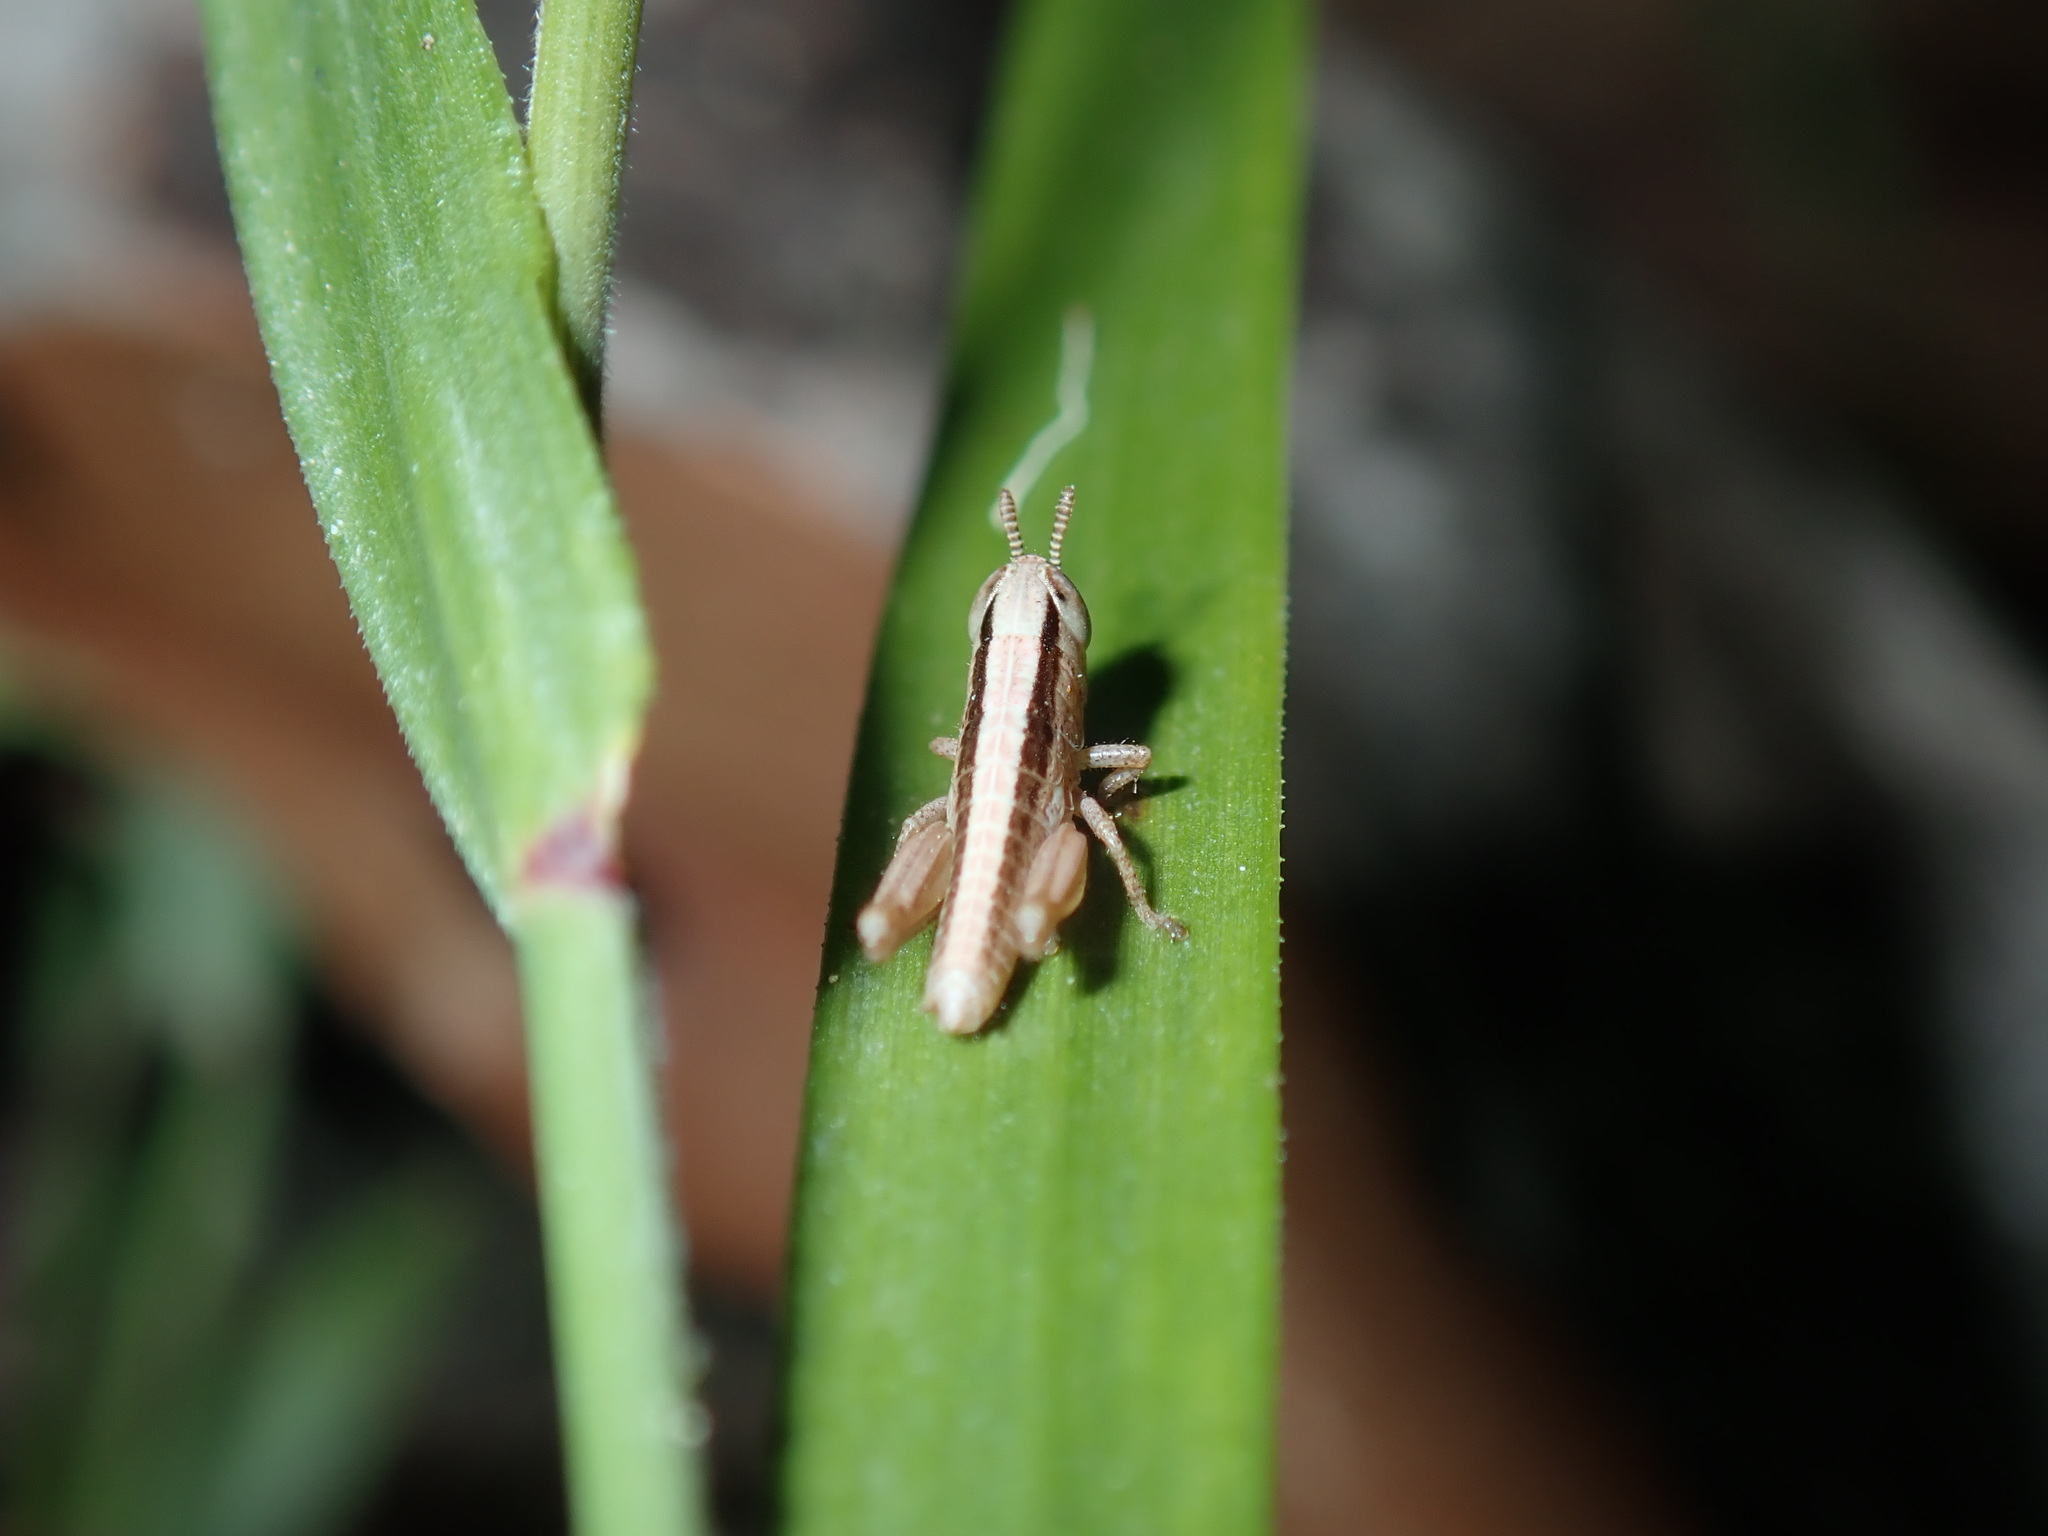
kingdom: Animalia
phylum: Arthropoda
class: Insecta
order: Orthoptera
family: Acrididae
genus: Bermius
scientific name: Bermius brachycerus
